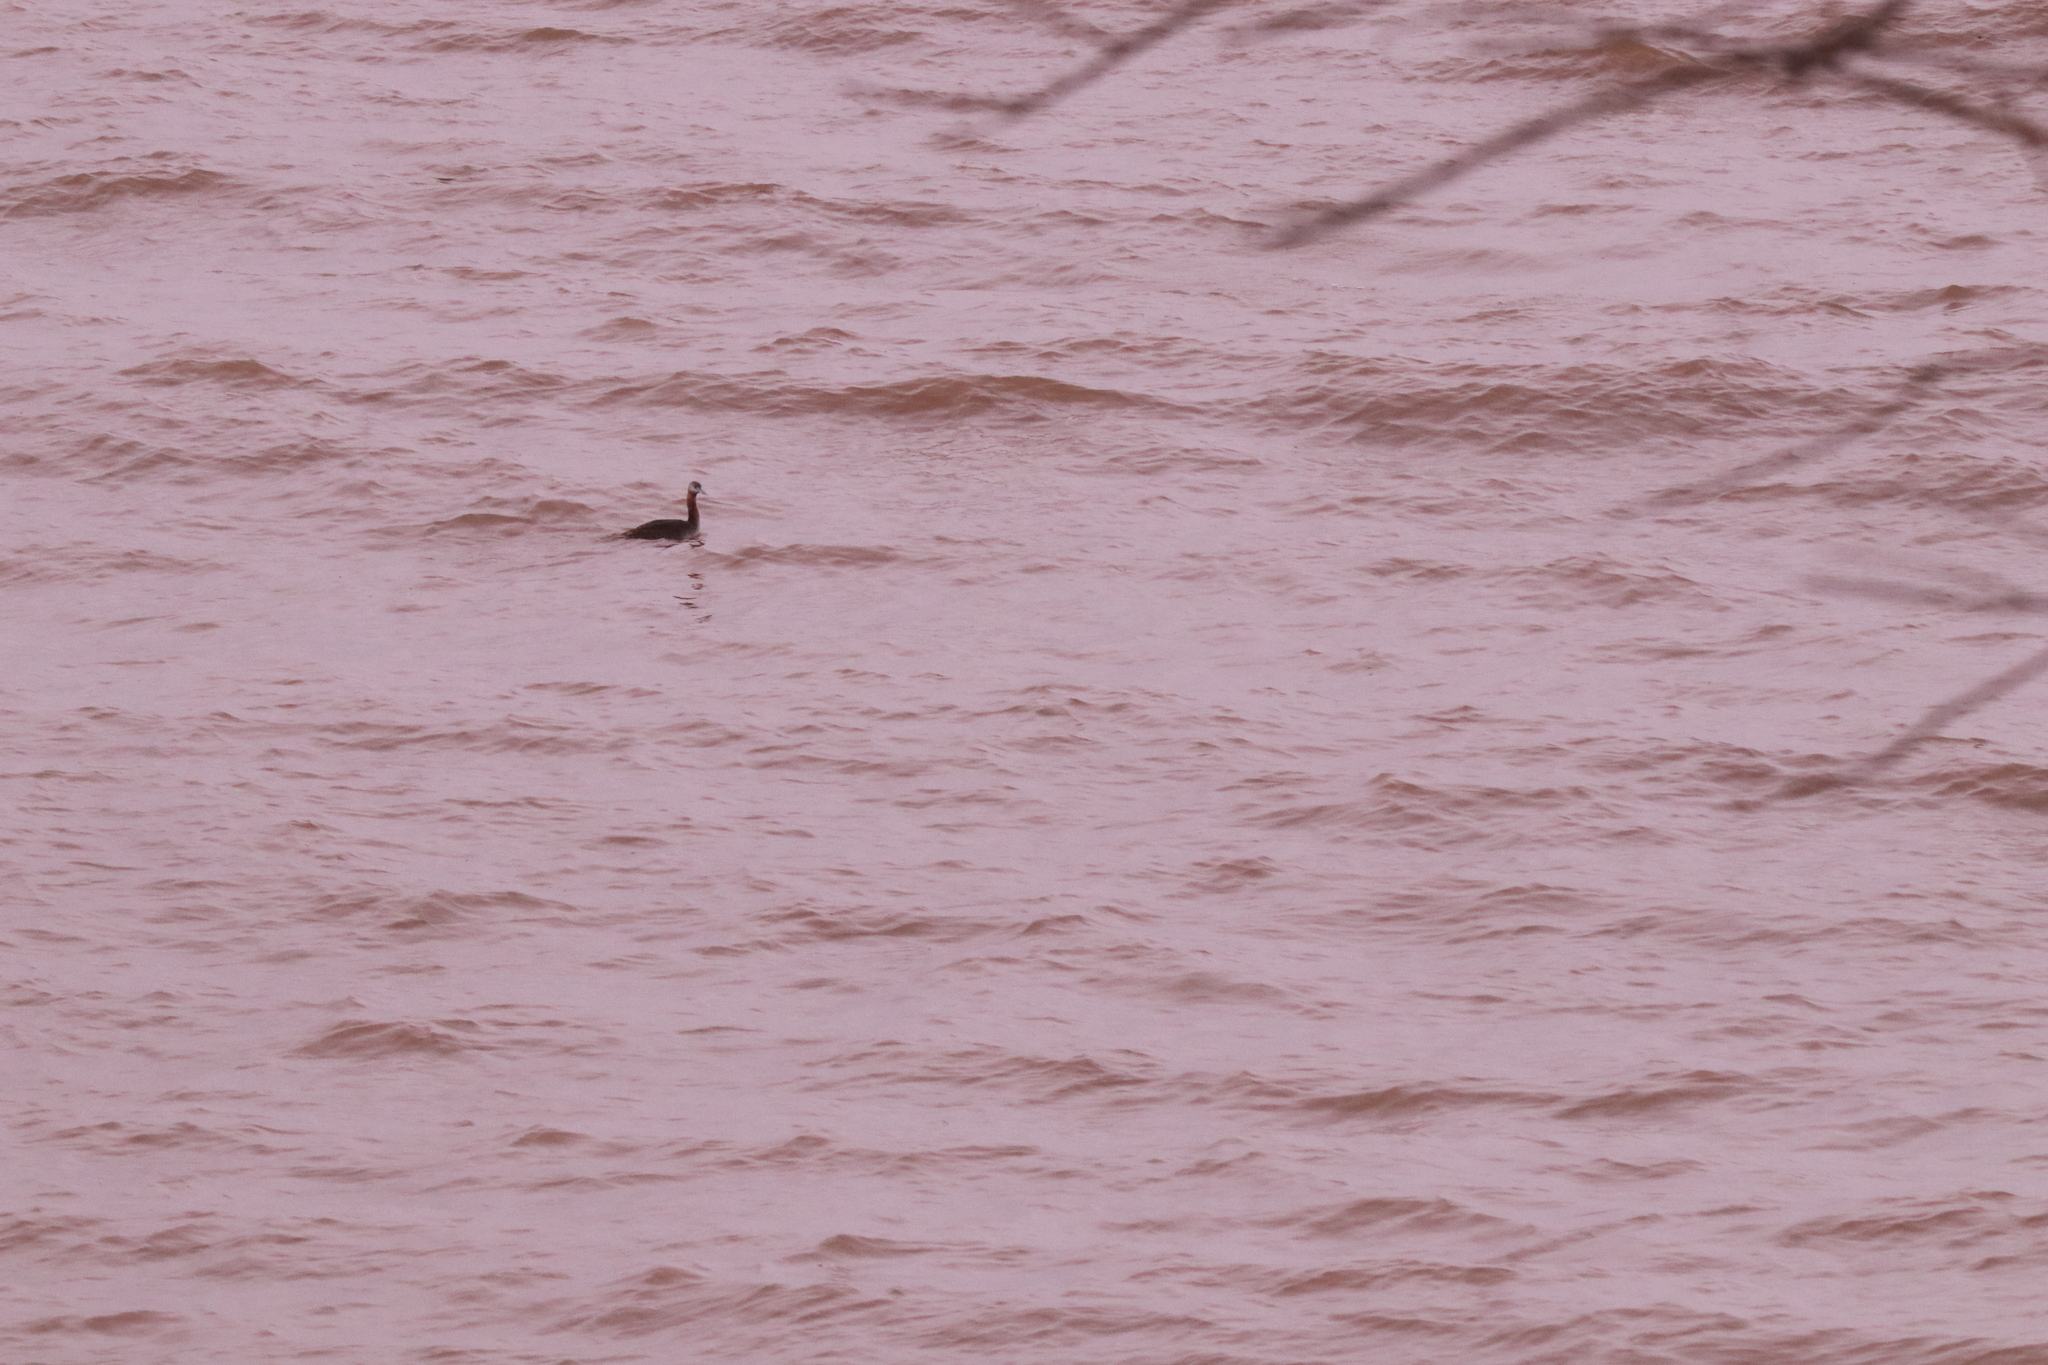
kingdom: Animalia
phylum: Chordata
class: Aves
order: Podicipediformes
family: Podicipedidae
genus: Podiceps
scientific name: Podiceps major
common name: Great grebe
